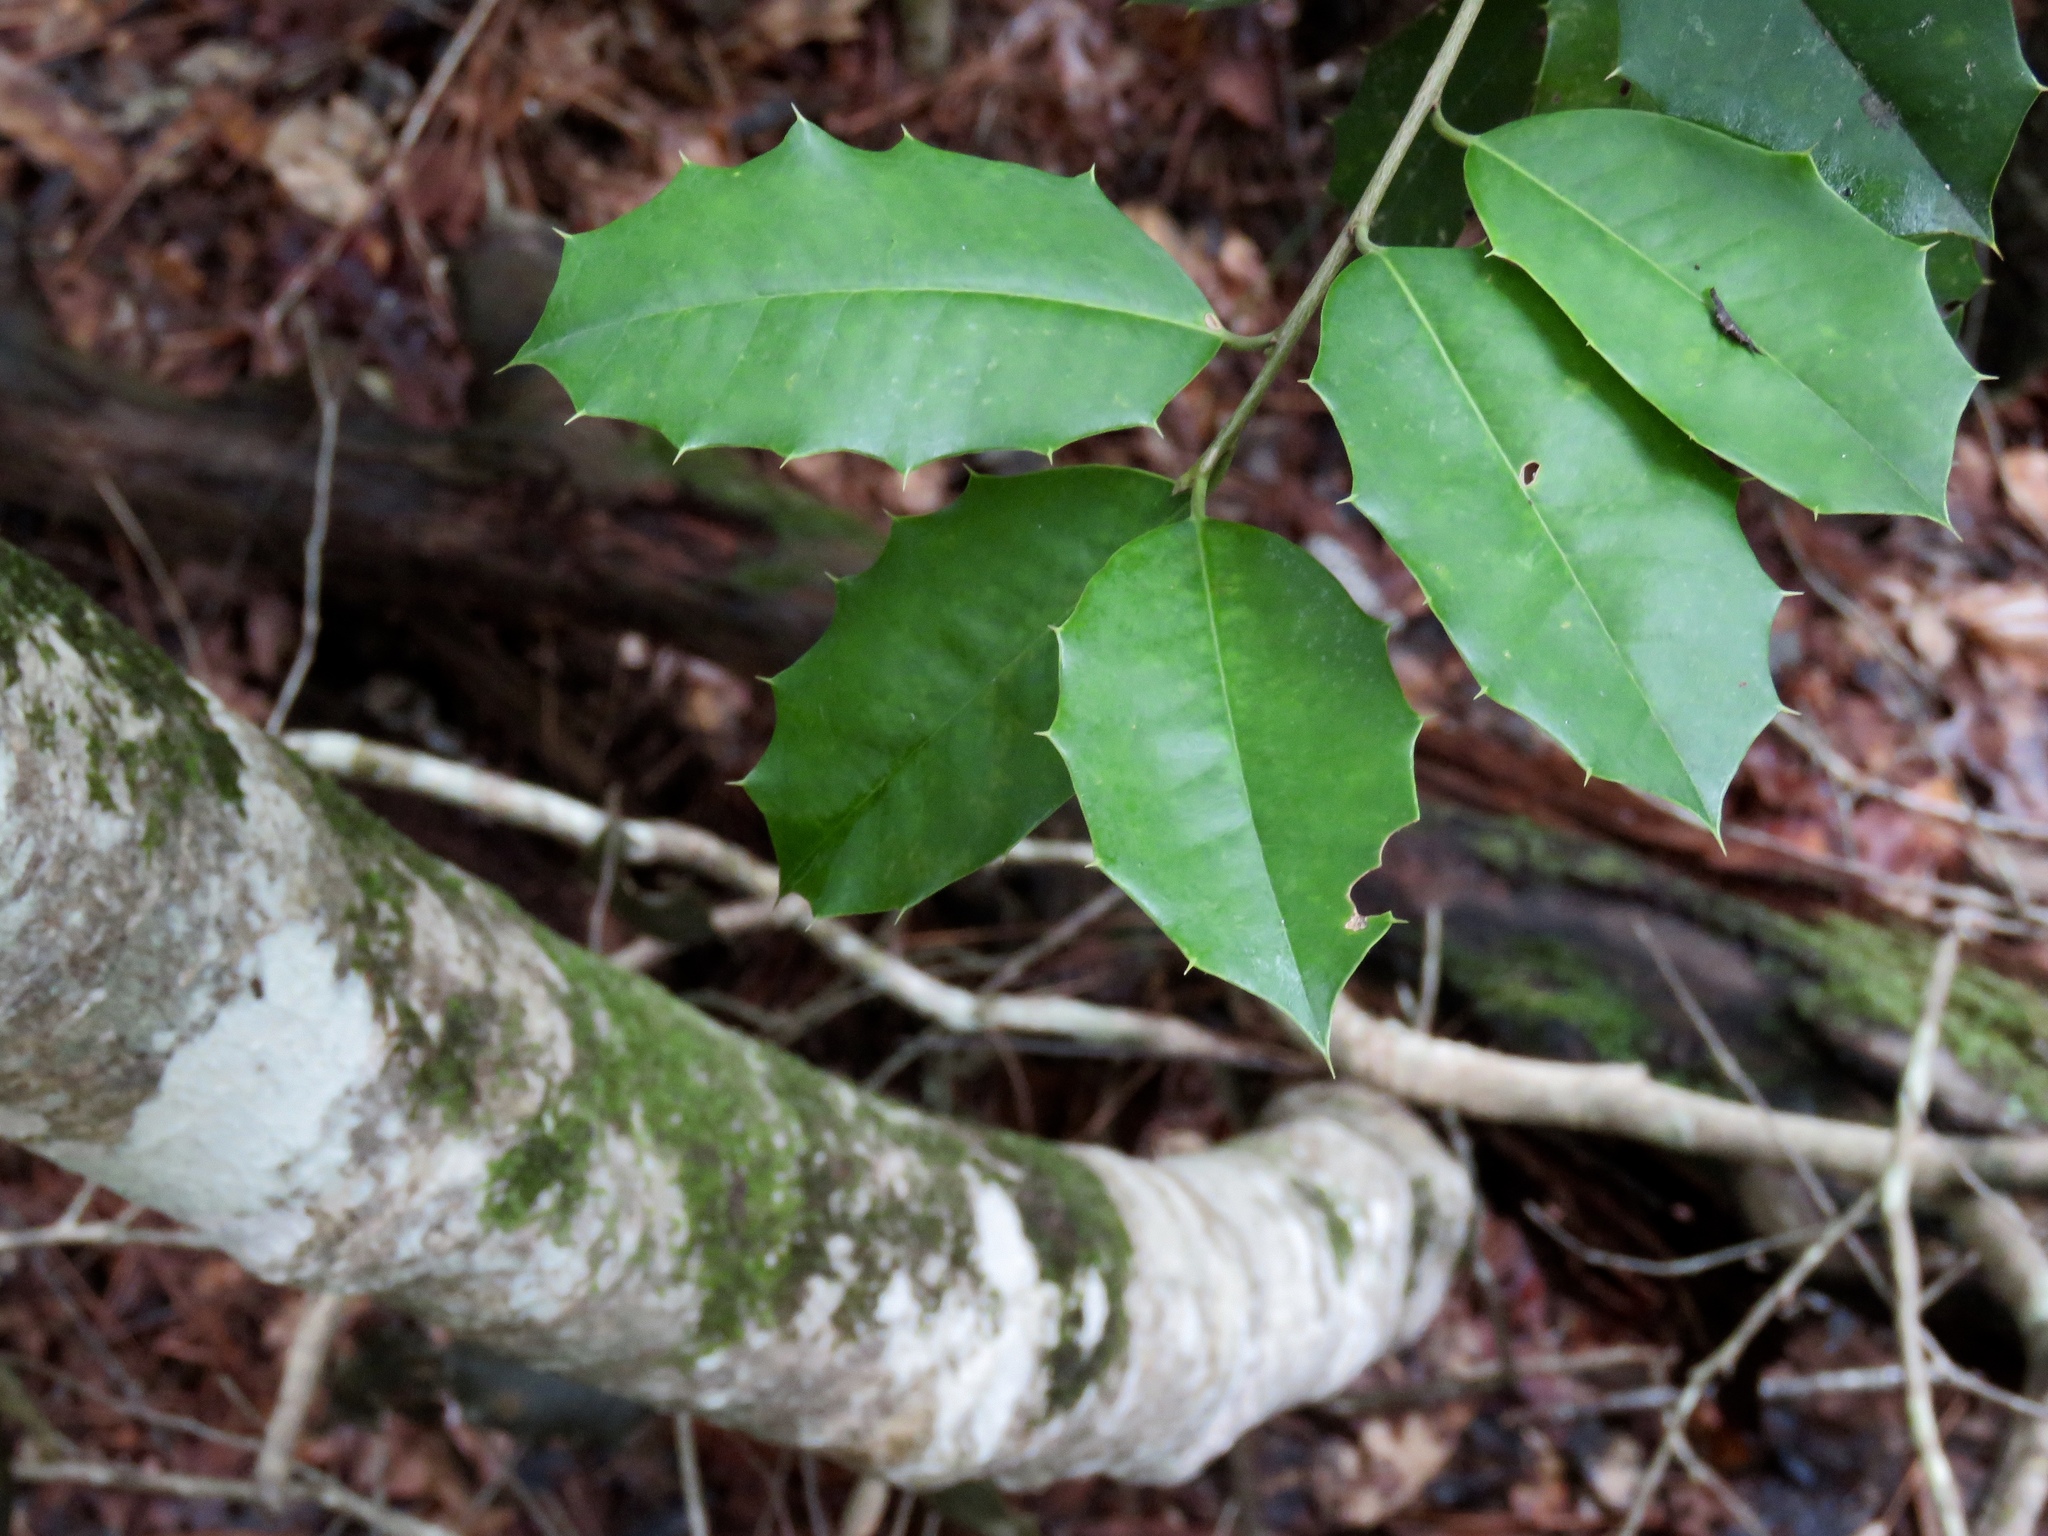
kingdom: Plantae
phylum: Tracheophyta
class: Magnoliopsida
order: Aquifoliales
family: Aquifoliaceae
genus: Ilex
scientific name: Ilex opaca
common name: American holly
